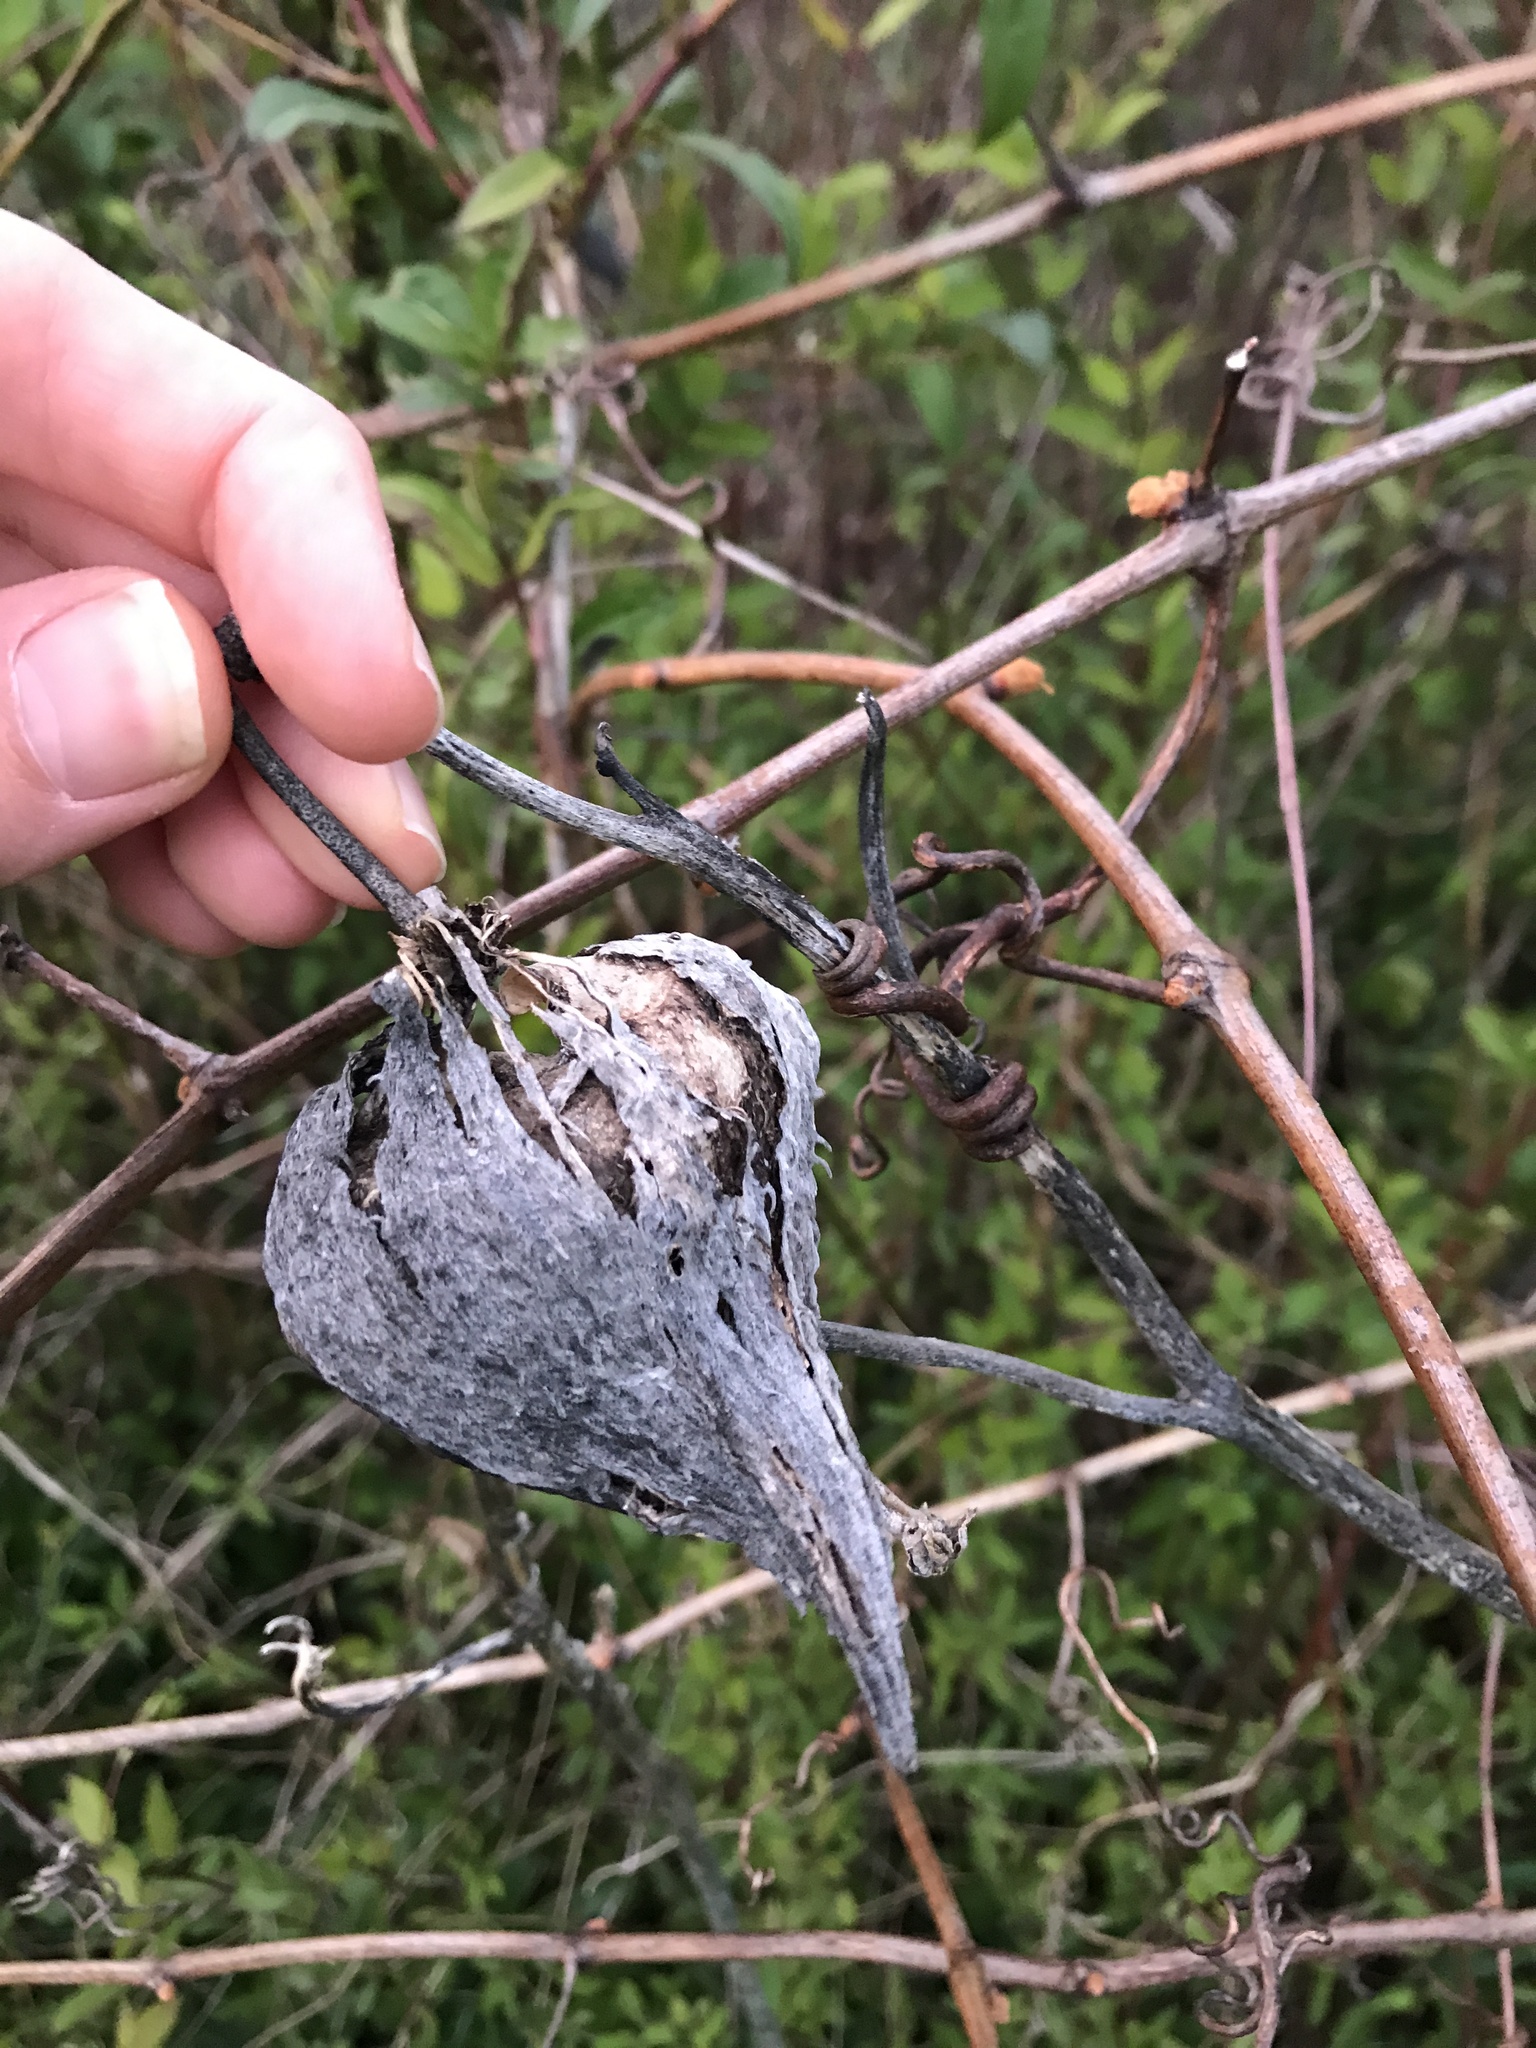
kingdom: Plantae
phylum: Tracheophyta
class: Magnoliopsida
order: Gentianales
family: Apocynaceae
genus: Asclepias
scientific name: Asclepias syriaca
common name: Common milkweed
